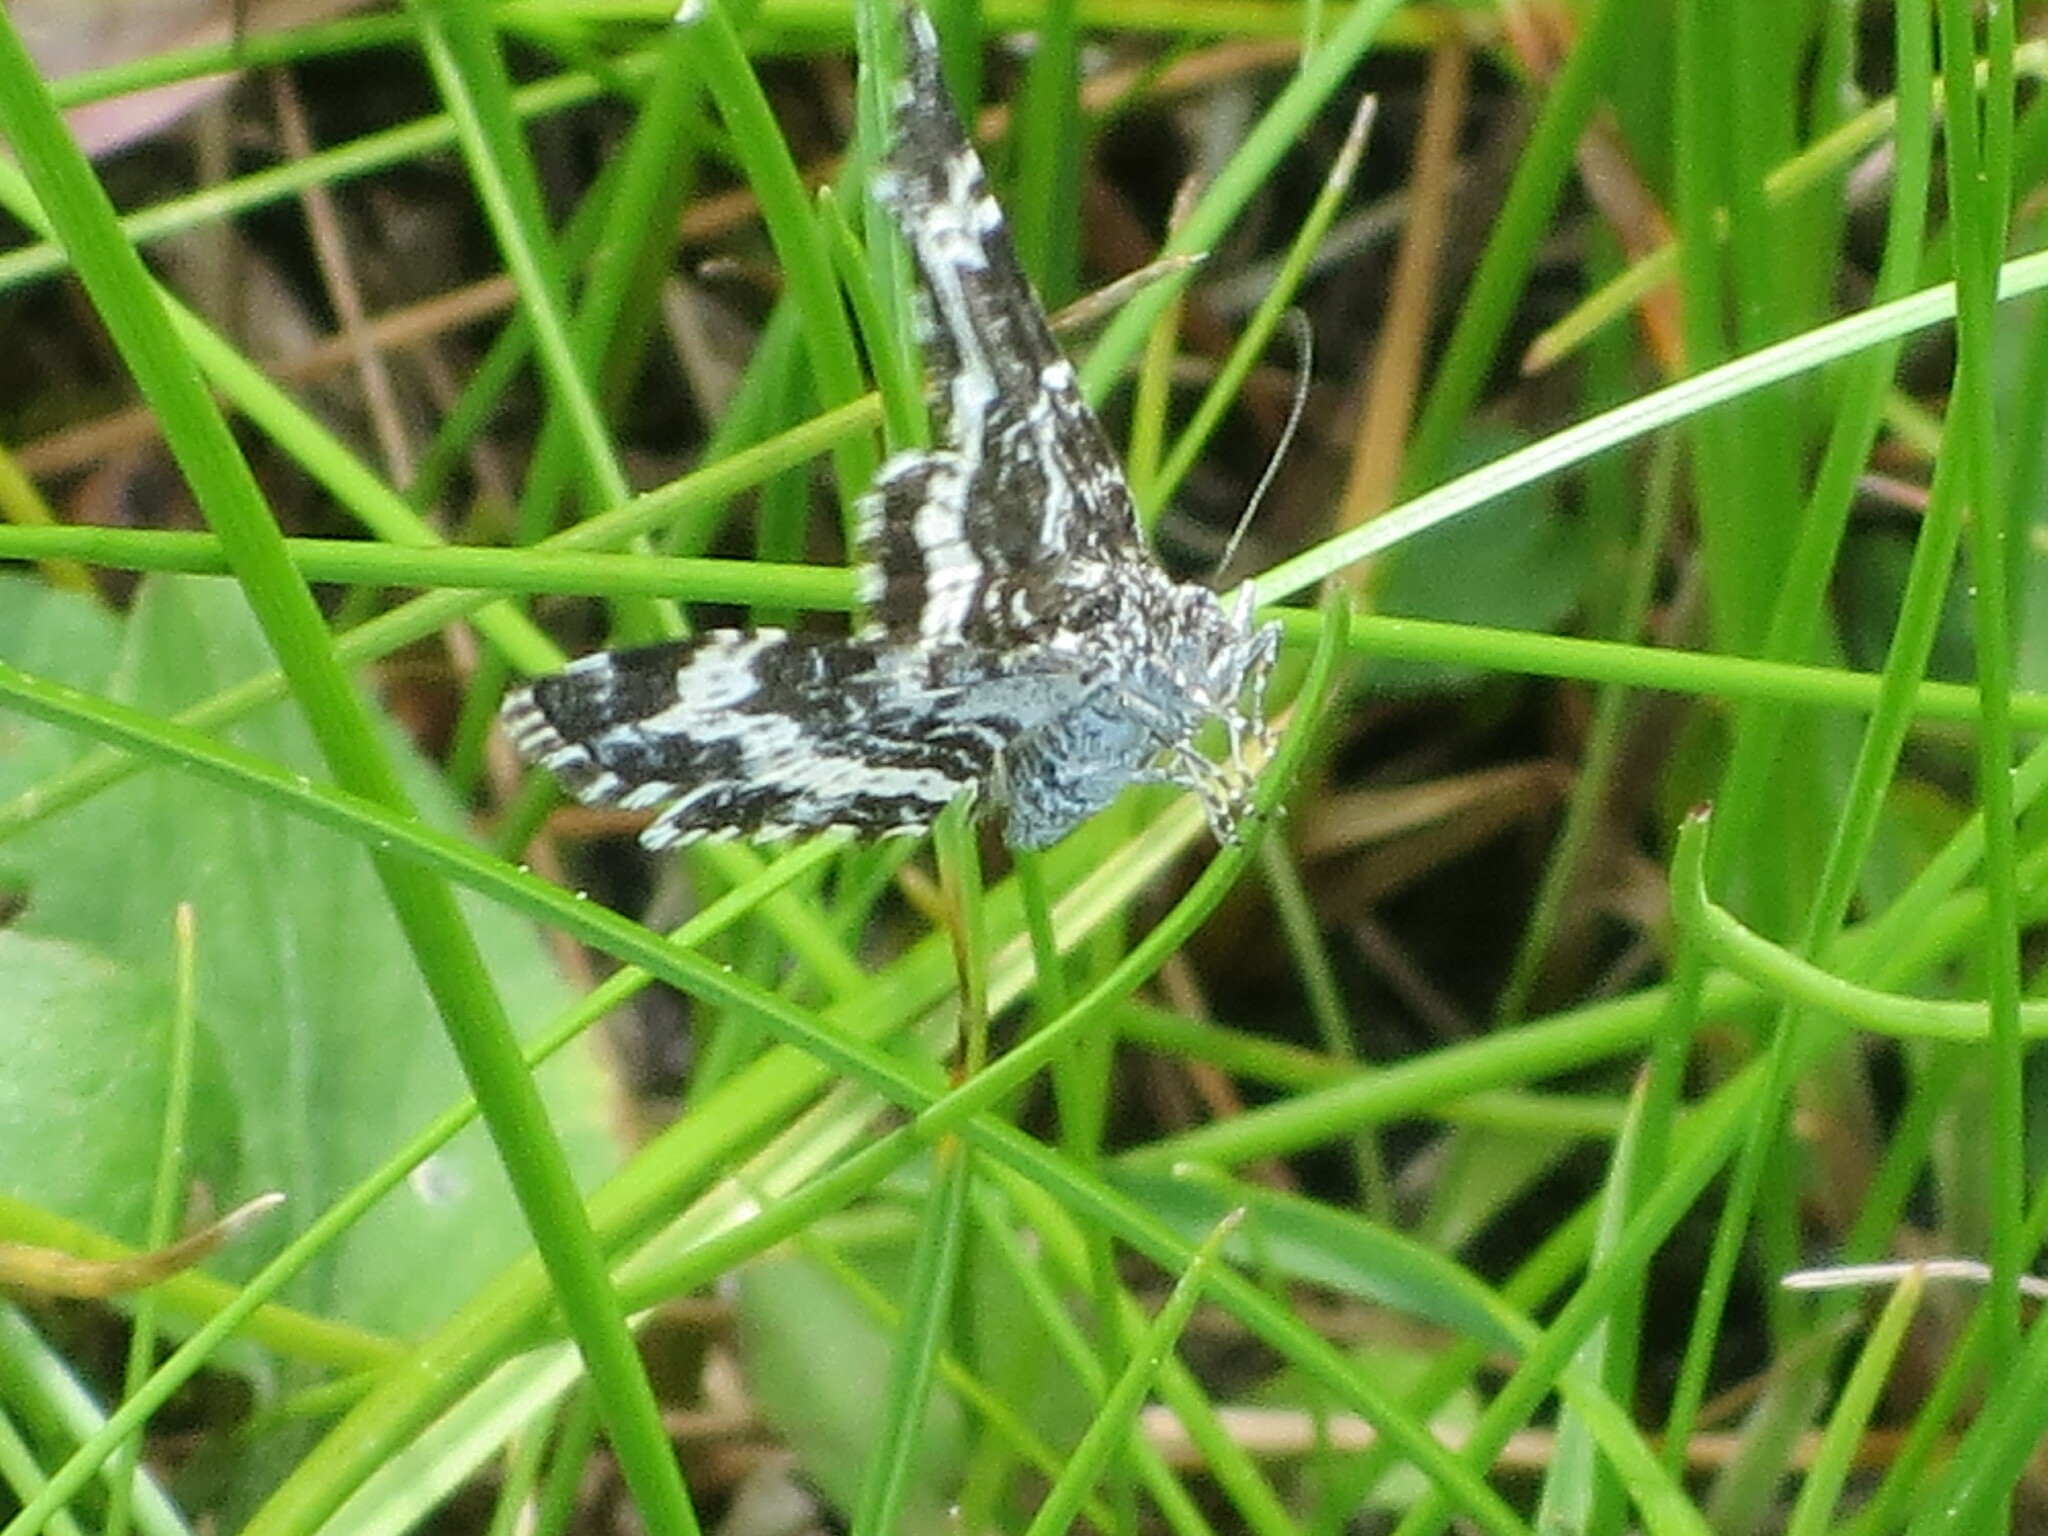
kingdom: Animalia
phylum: Arthropoda
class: Insecta
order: Lepidoptera
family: Geometridae
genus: Epirrhoe
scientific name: Epirrhoe sperryi
